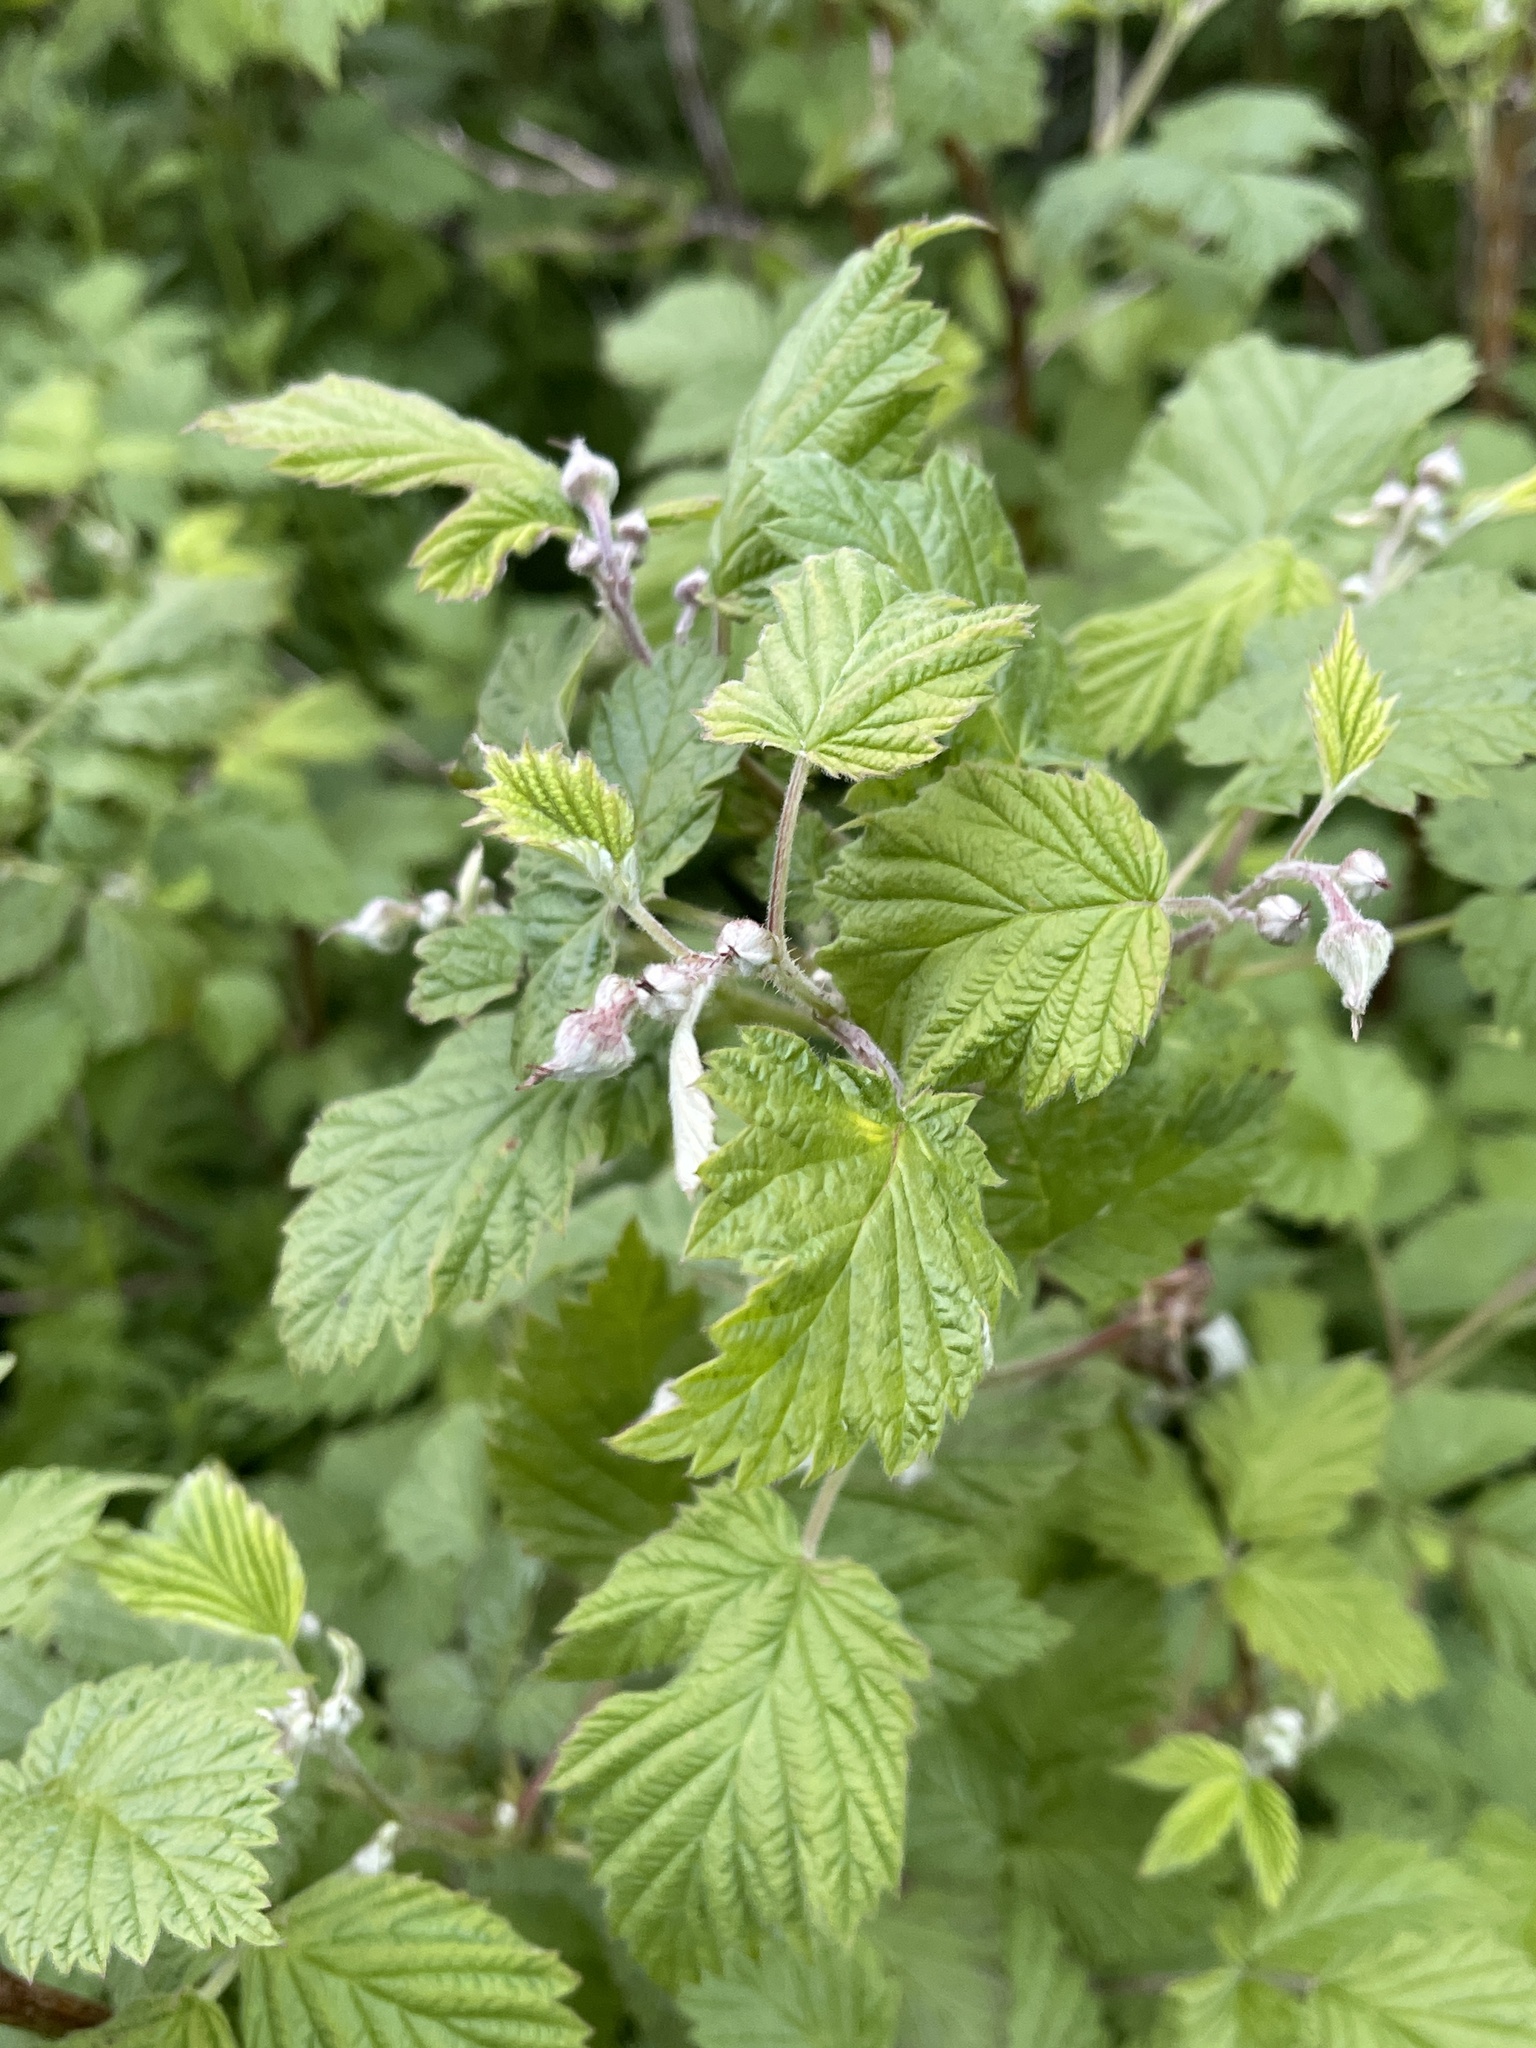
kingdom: Plantae
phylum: Tracheophyta
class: Magnoliopsida
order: Rosales
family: Rosaceae
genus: Rubus
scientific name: Rubus idaeus
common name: Raspberry
